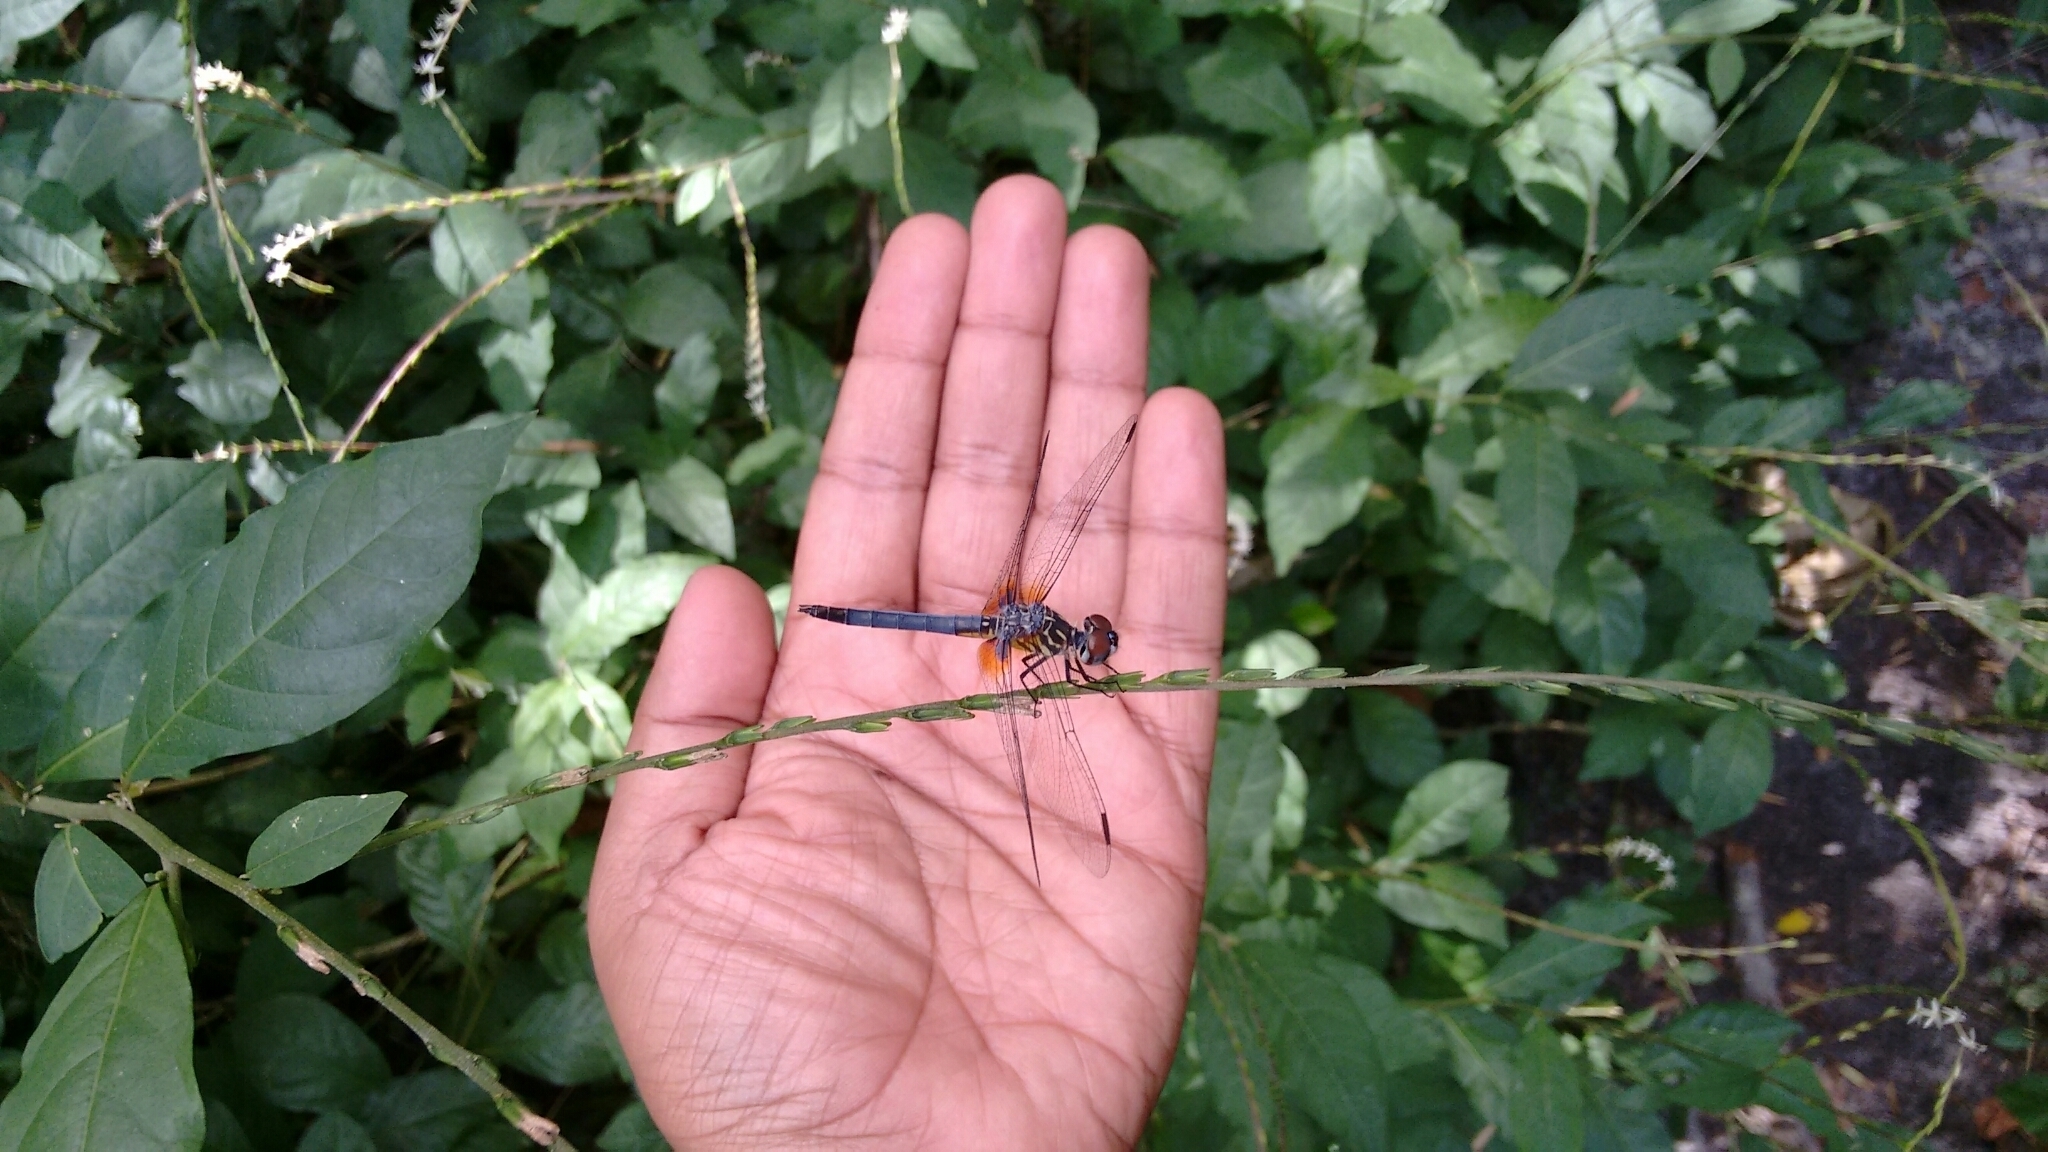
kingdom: Animalia
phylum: Arthropoda
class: Insecta
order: Odonata
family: Libellulidae
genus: Pachydiplax
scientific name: Pachydiplax longipennis
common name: Blue dasher
